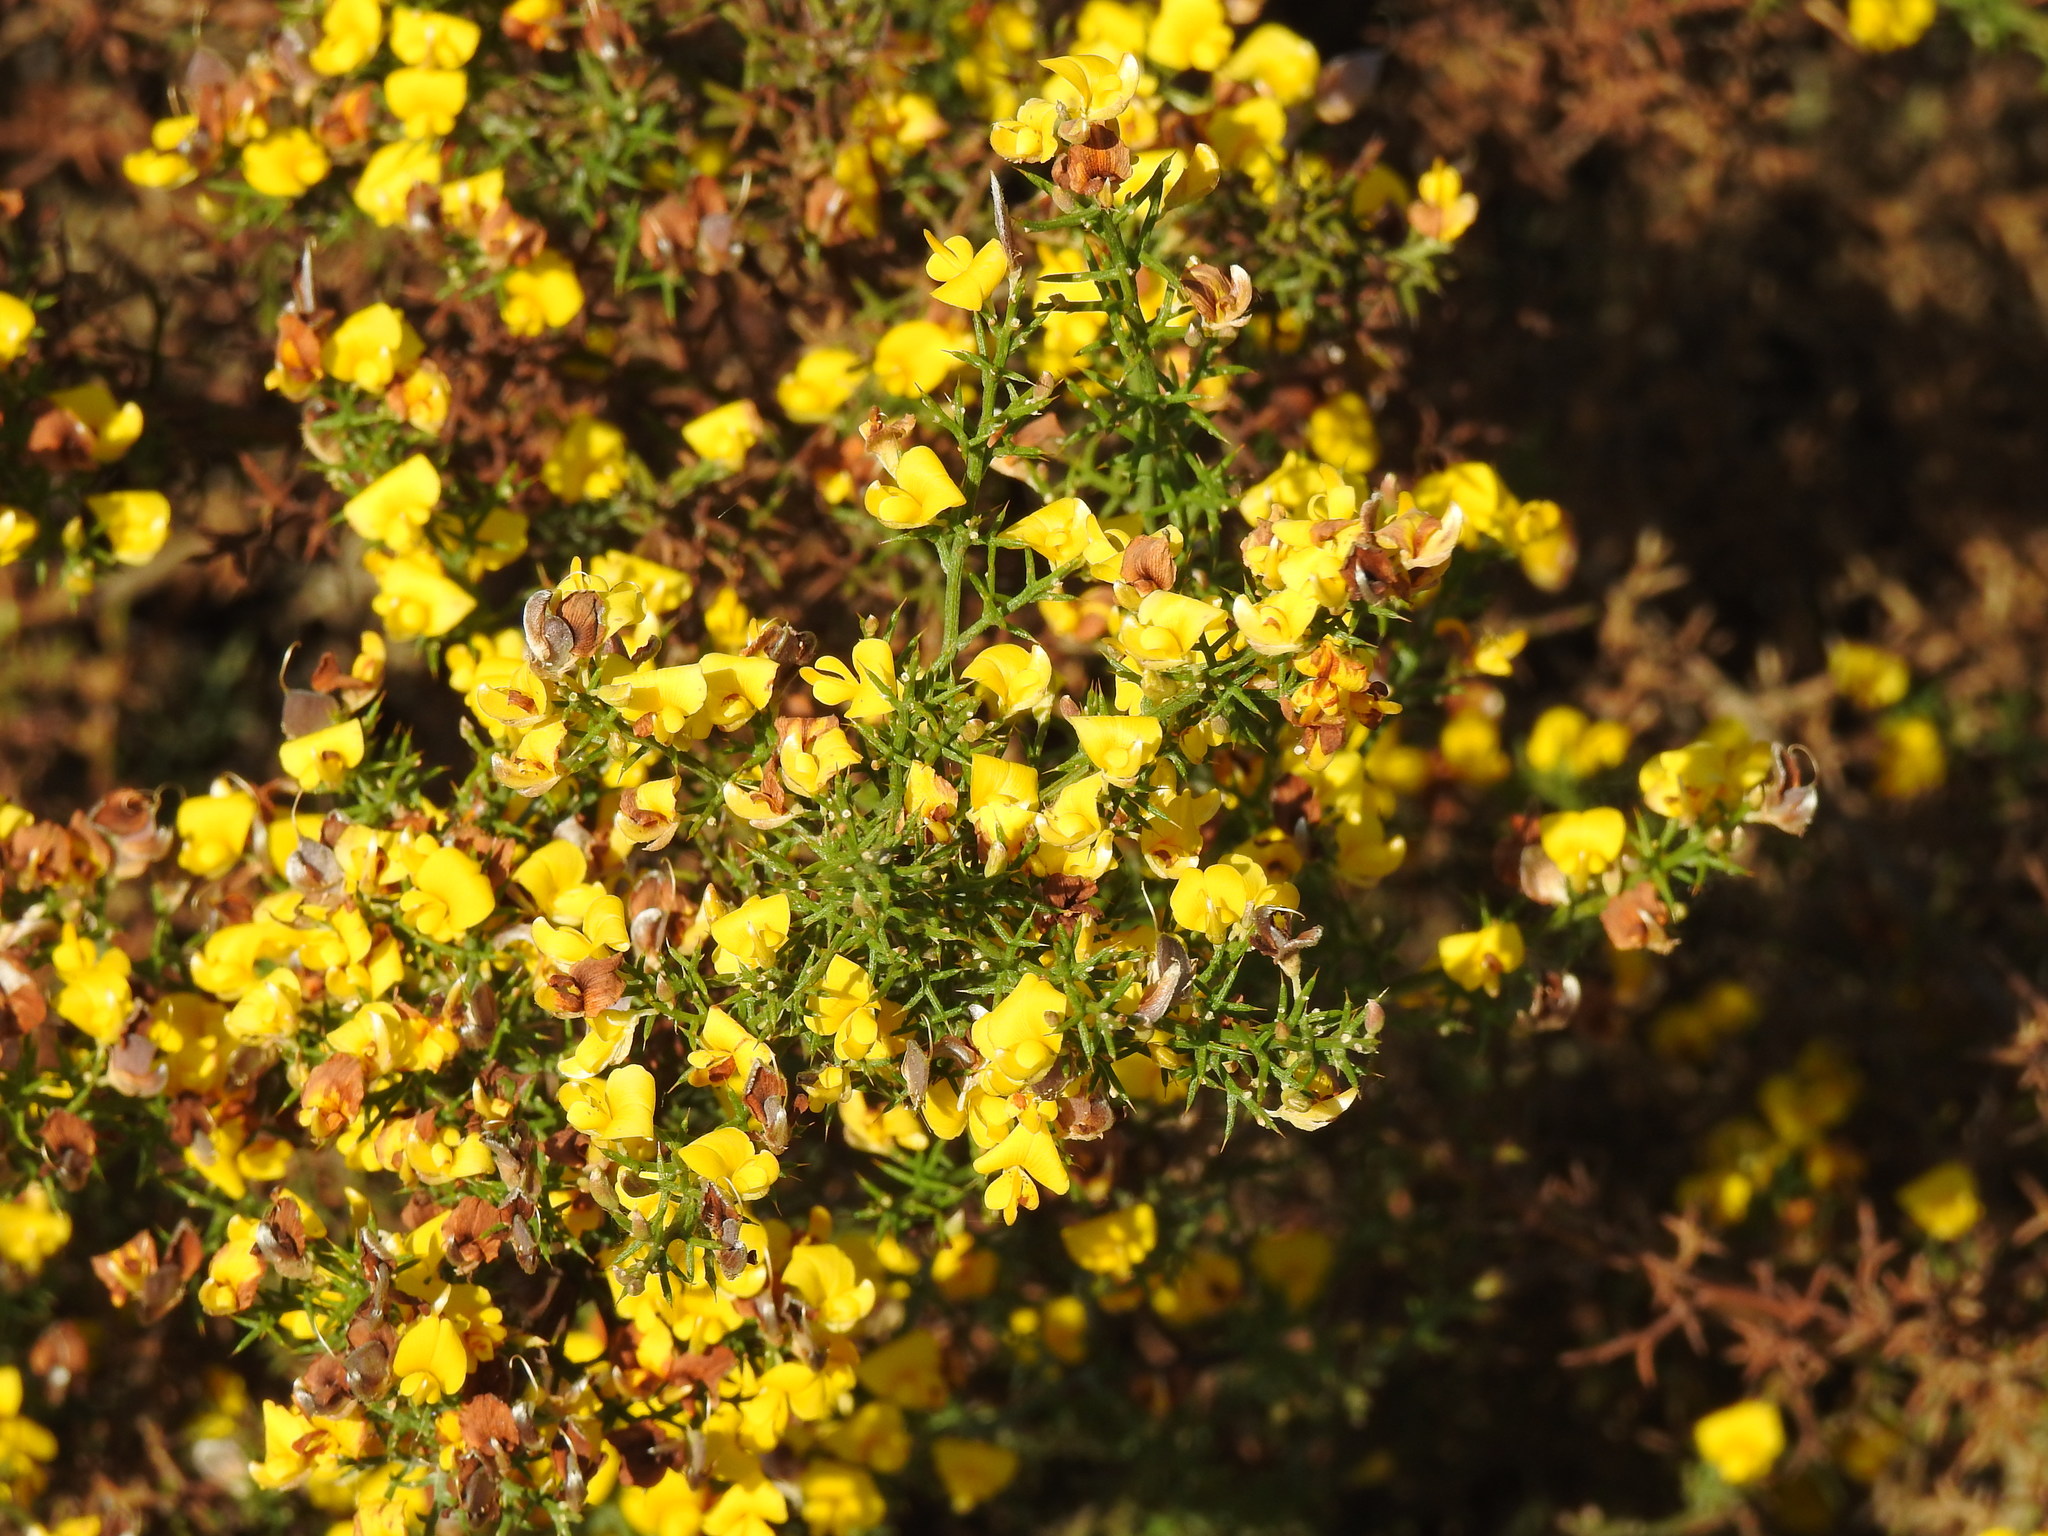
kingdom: Plantae
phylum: Tracheophyta
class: Magnoliopsida
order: Fabales
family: Fabaceae
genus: Stauracanthus
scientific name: Stauracanthus boivinii
